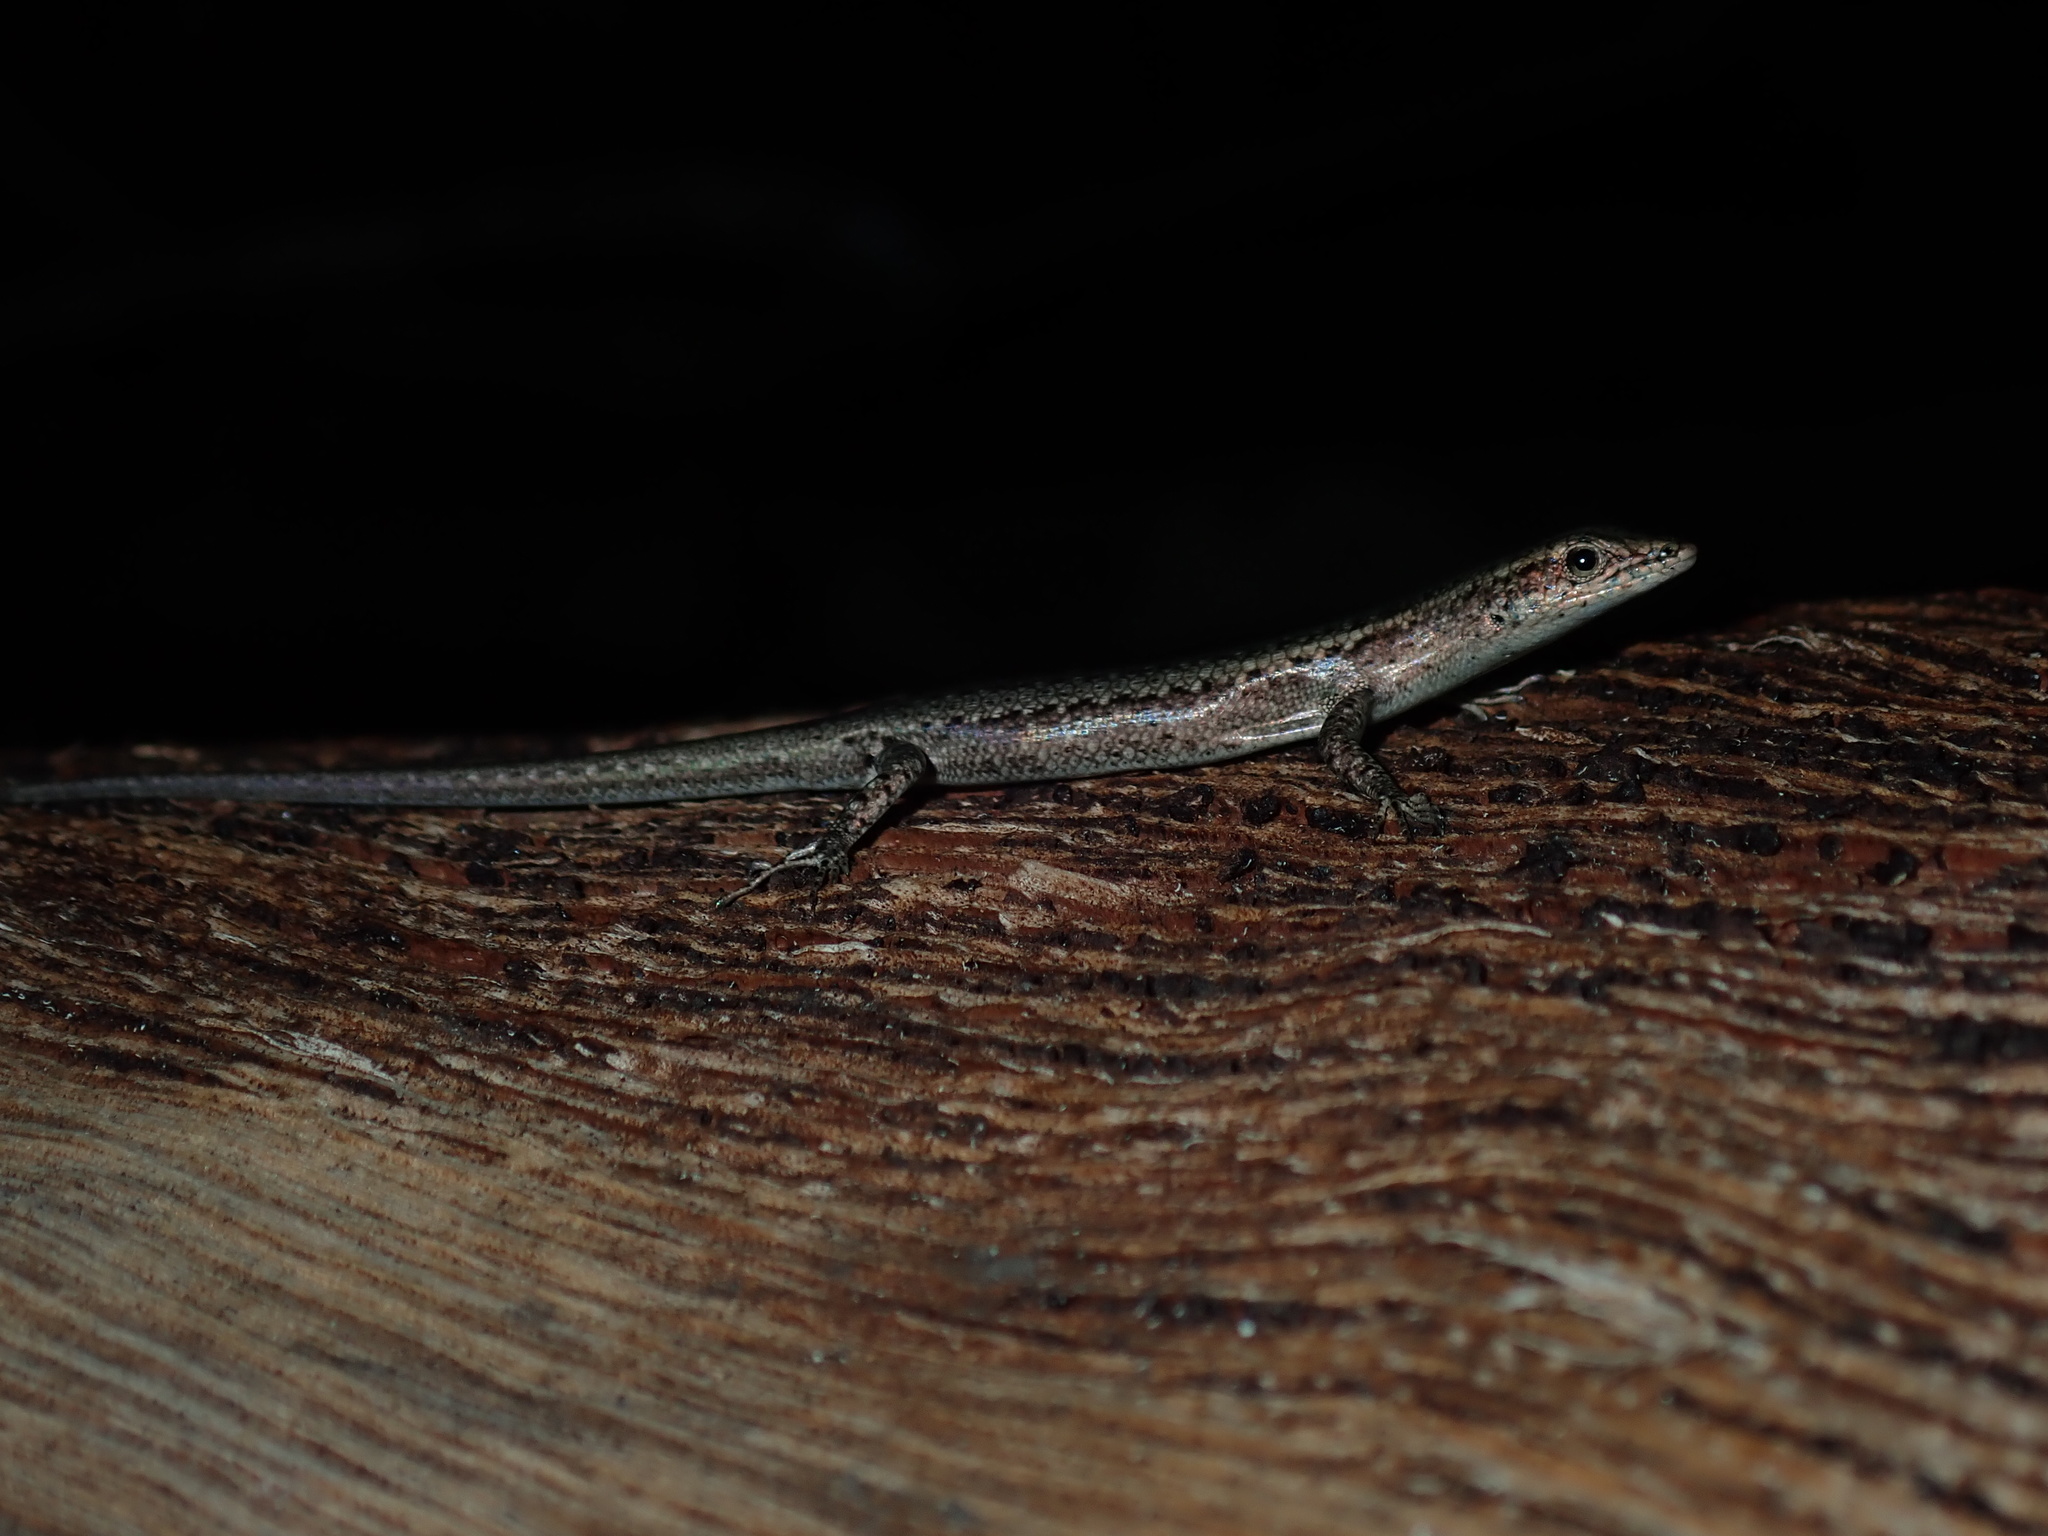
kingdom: Animalia
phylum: Chordata
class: Squamata
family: Scincidae
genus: Cryptoblepharus
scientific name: Cryptoblepharus
